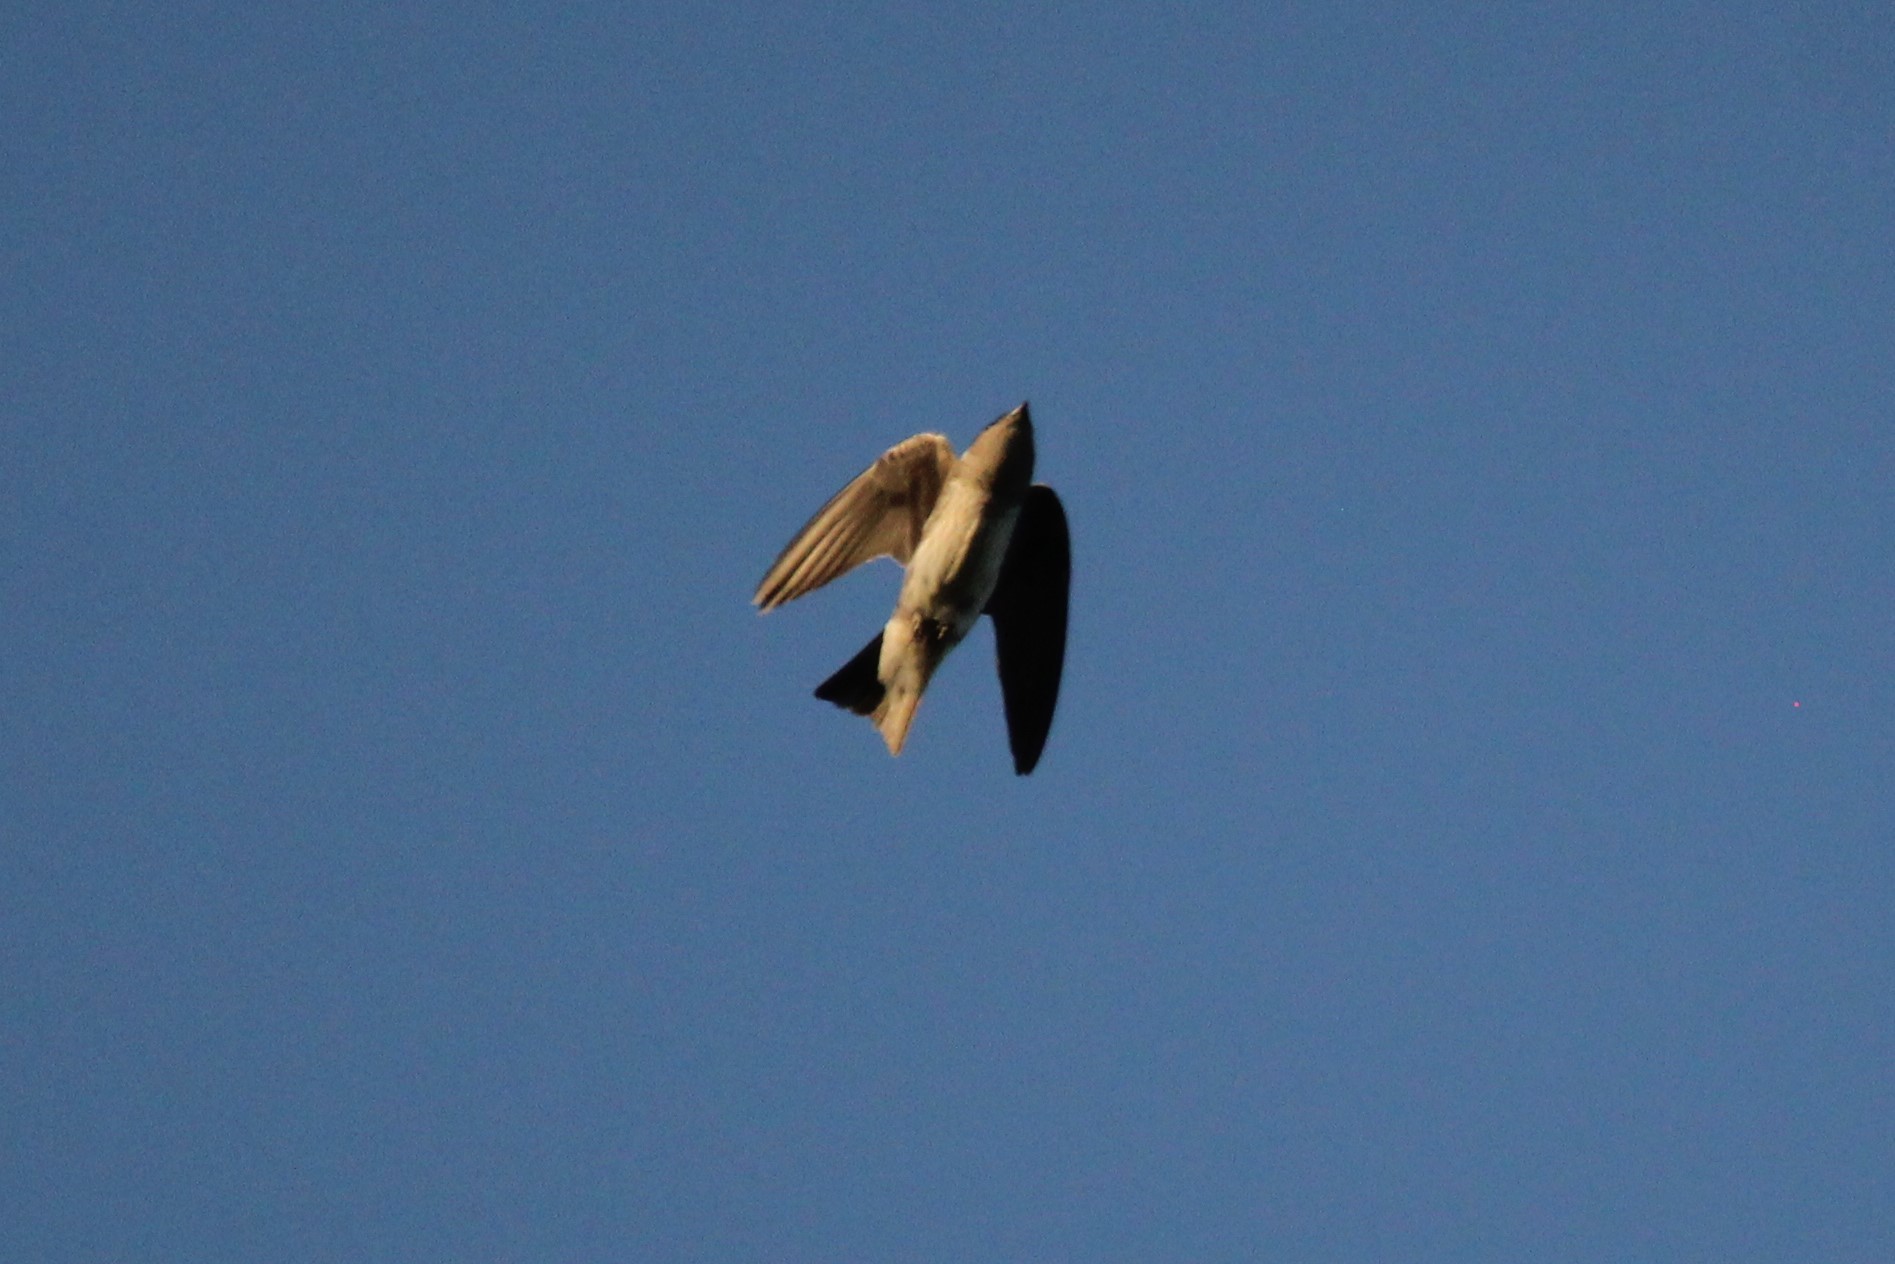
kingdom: Animalia
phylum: Chordata
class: Aves
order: Passeriformes
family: Hirundinidae
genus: Petrochelidon
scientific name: Petrochelidon pyrrhonota
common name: American cliff swallow
